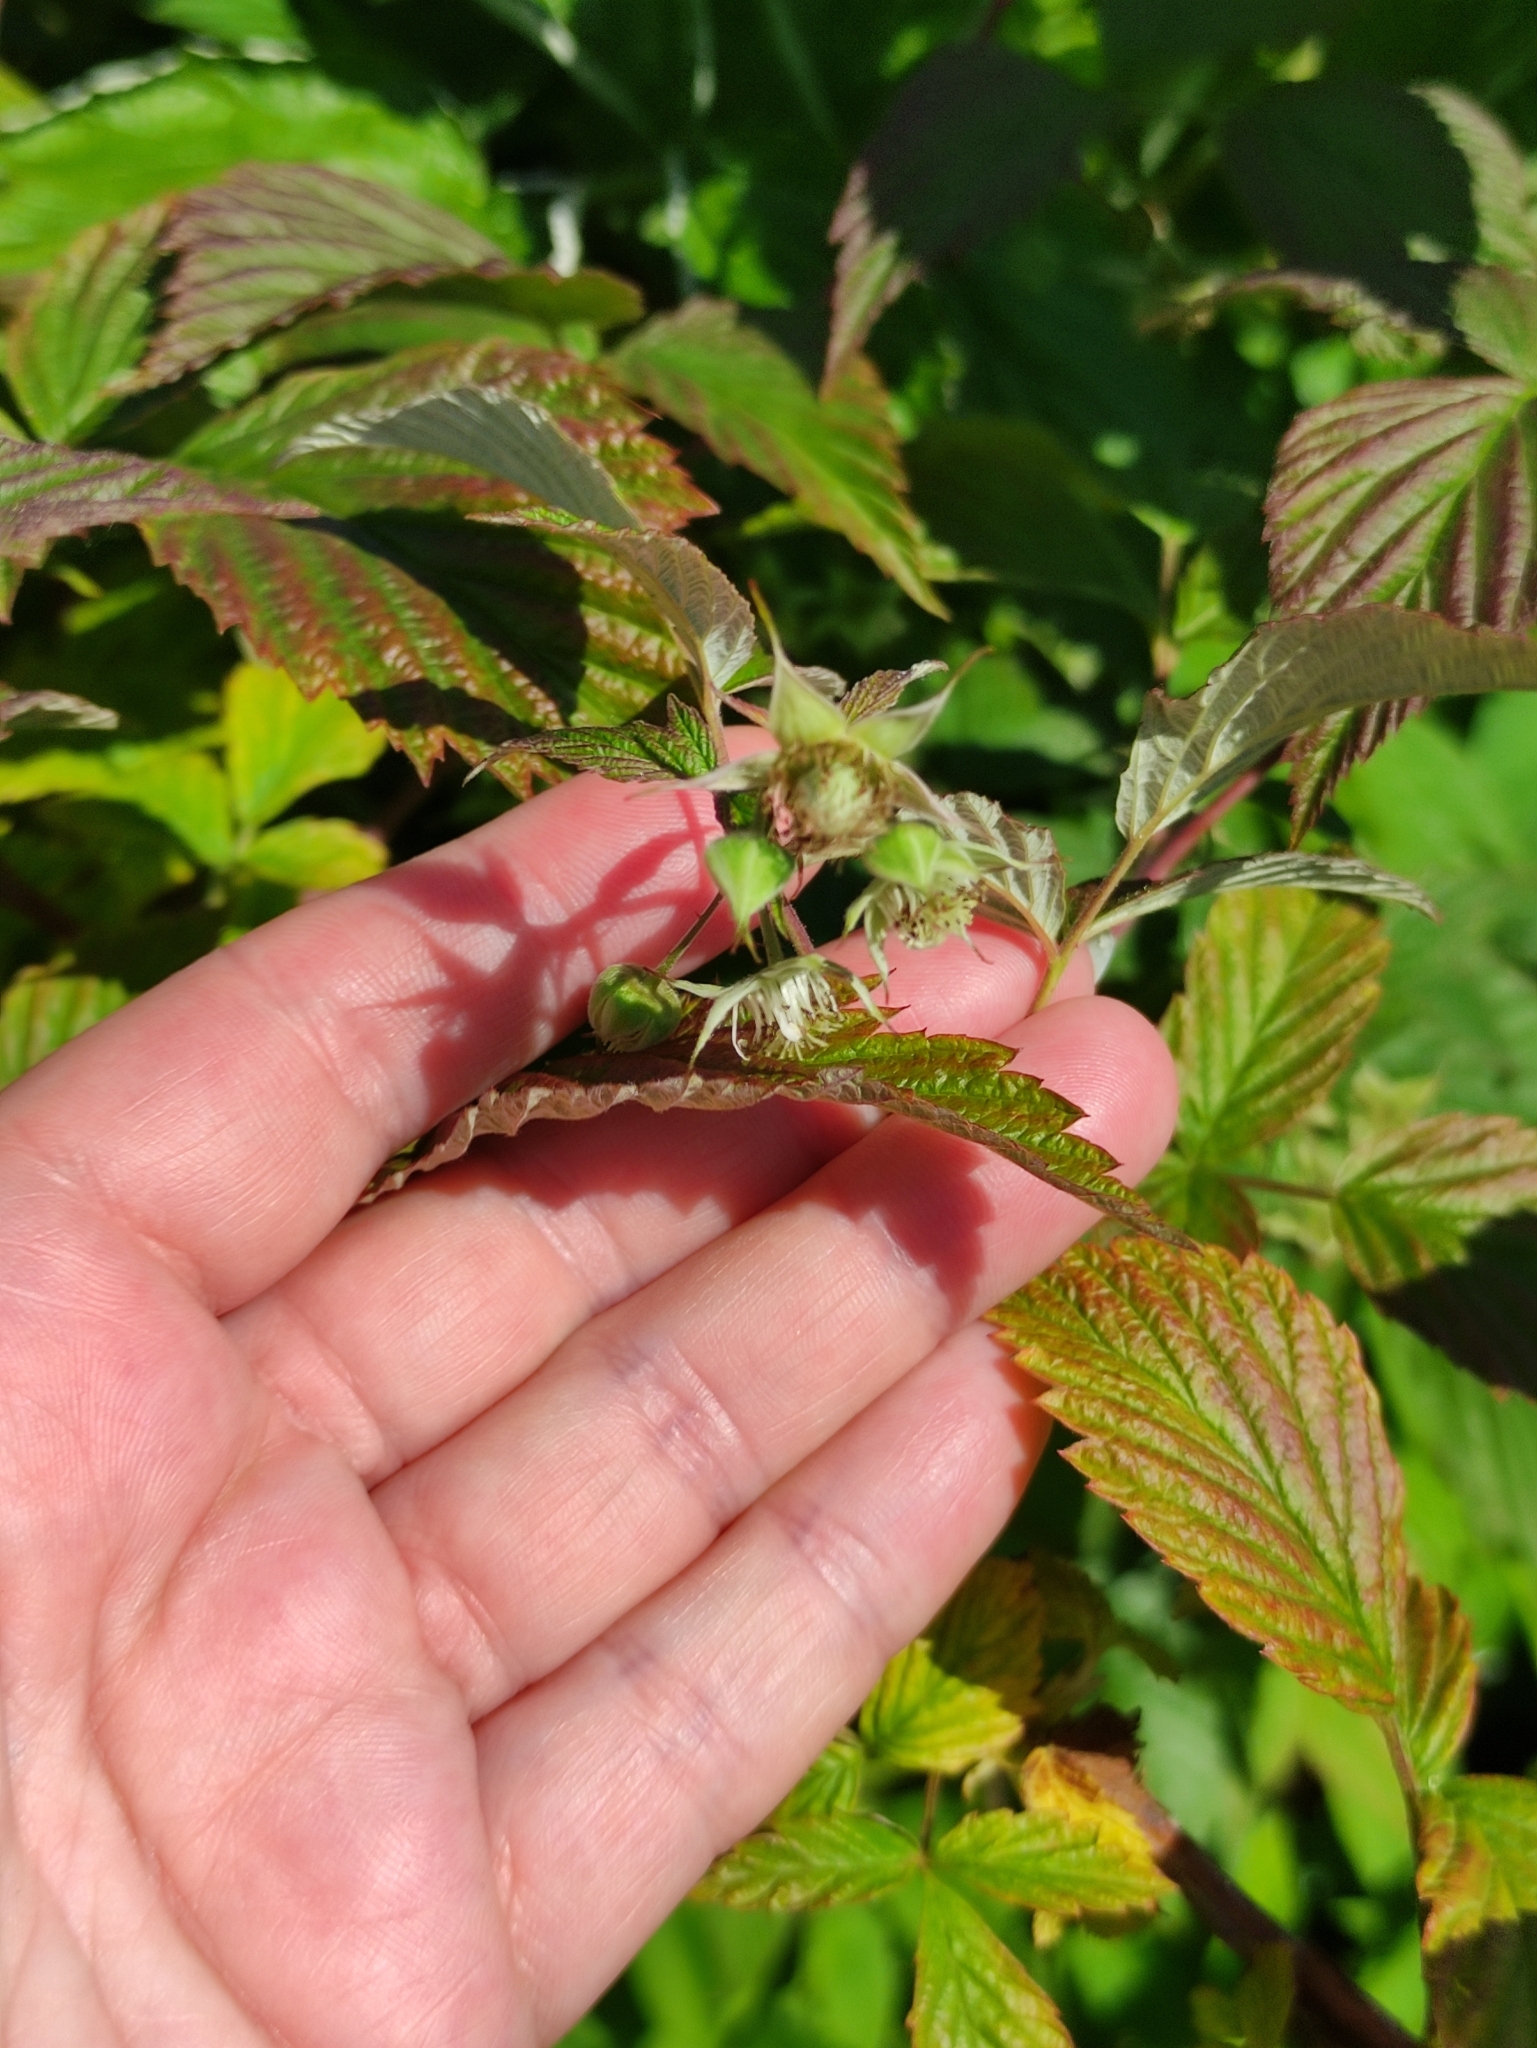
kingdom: Plantae
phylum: Tracheophyta
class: Magnoliopsida
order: Rosales
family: Rosaceae
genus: Rubus
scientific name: Rubus idaeus
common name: Raspberry
